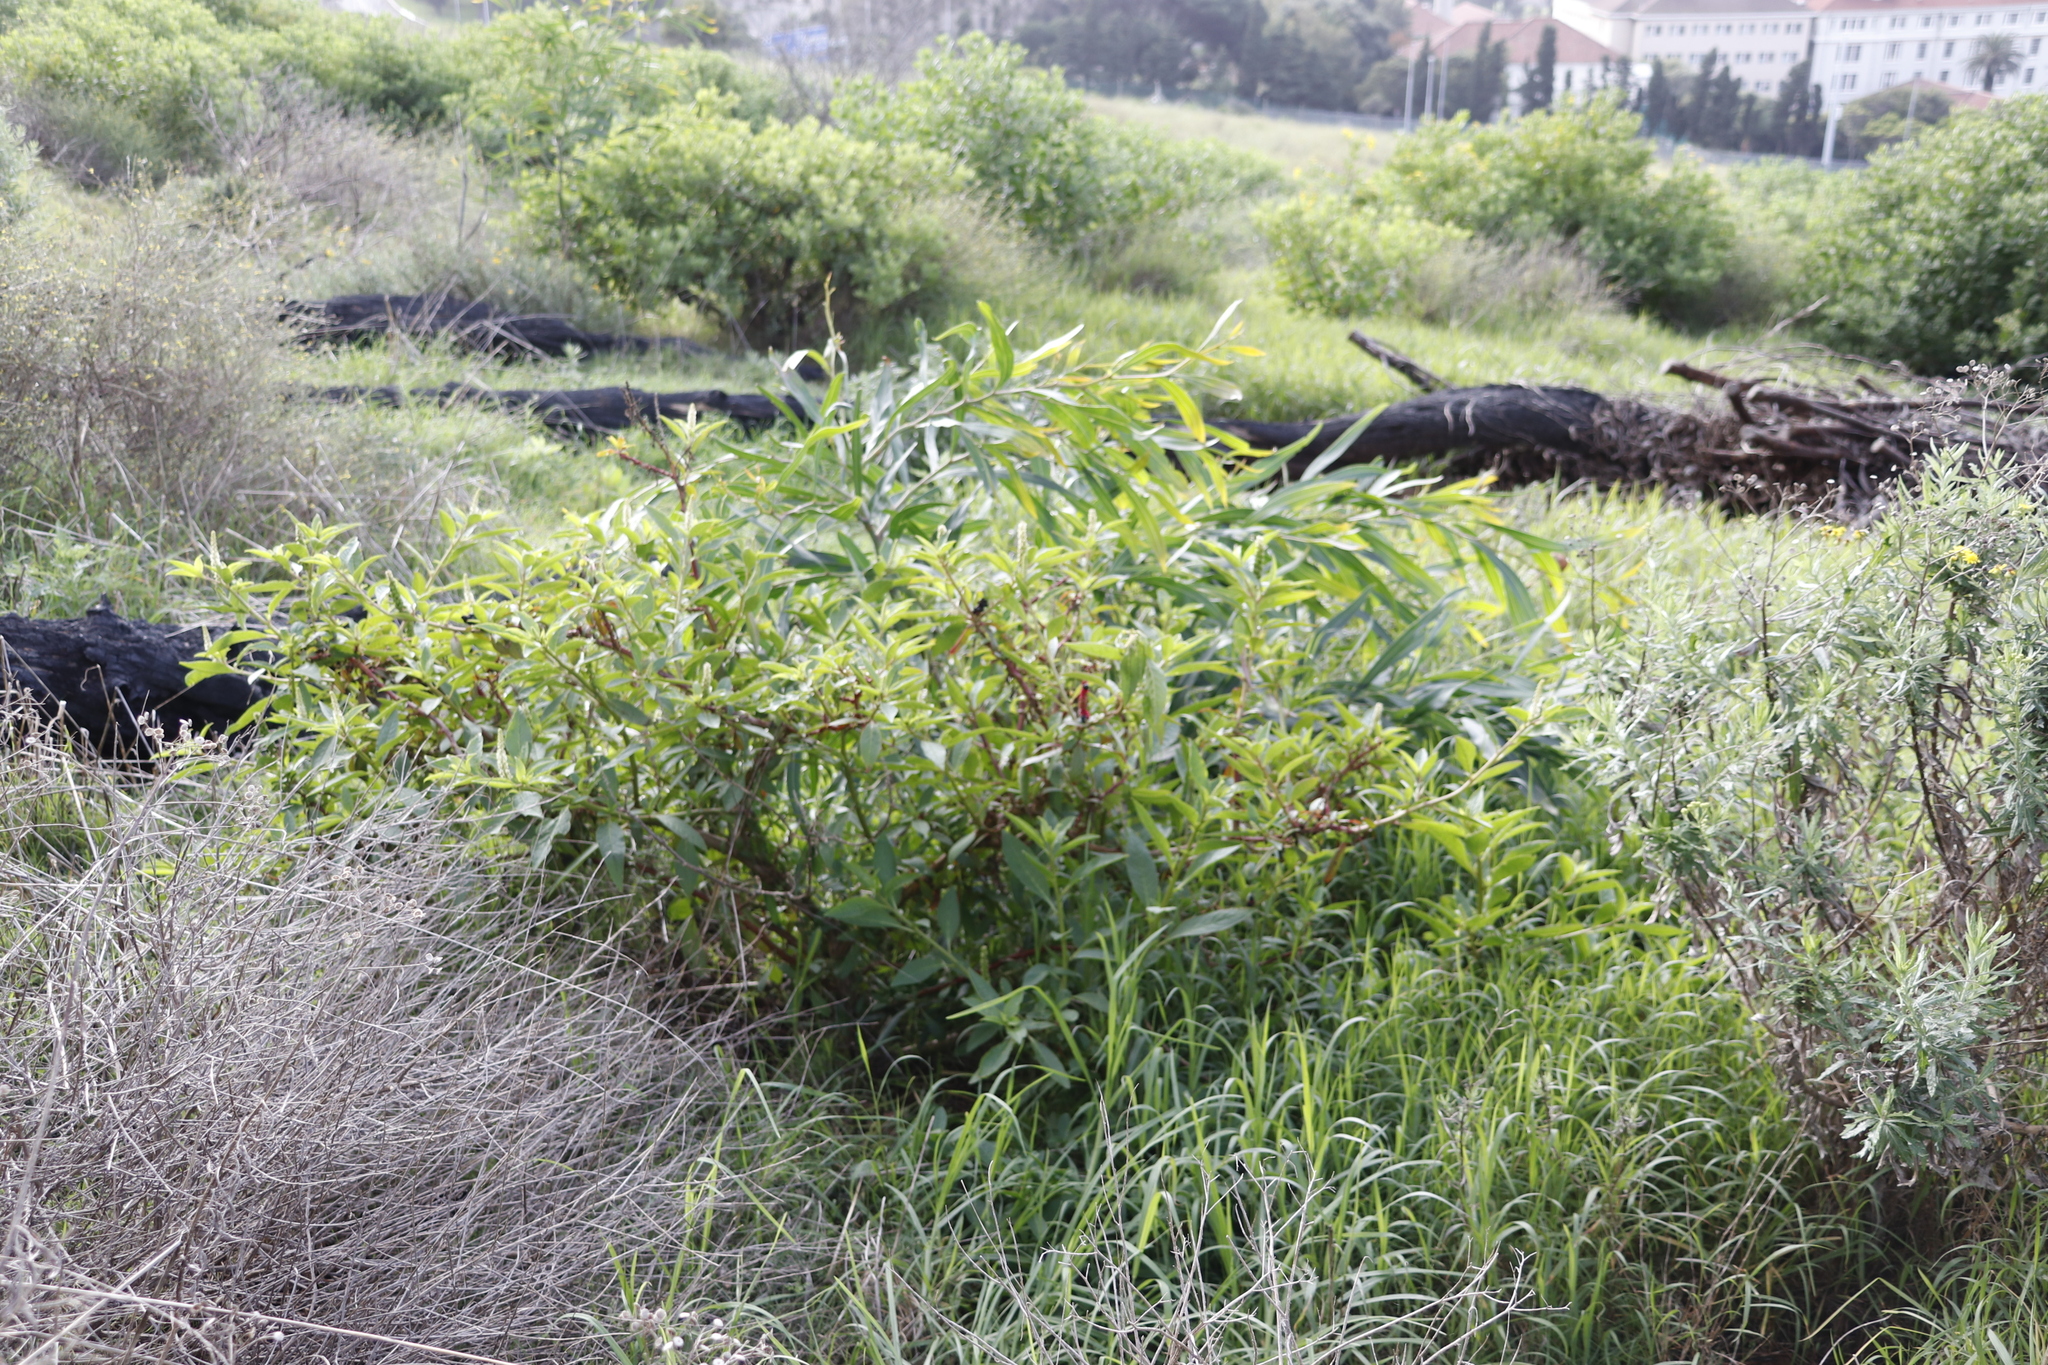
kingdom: Plantae
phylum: Tracheophyta
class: Magnoliopsida
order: Caryophyllales
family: Phytolaccaceae
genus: Phytolacca
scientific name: Phytolacca icosandra
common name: Button pokeweed
